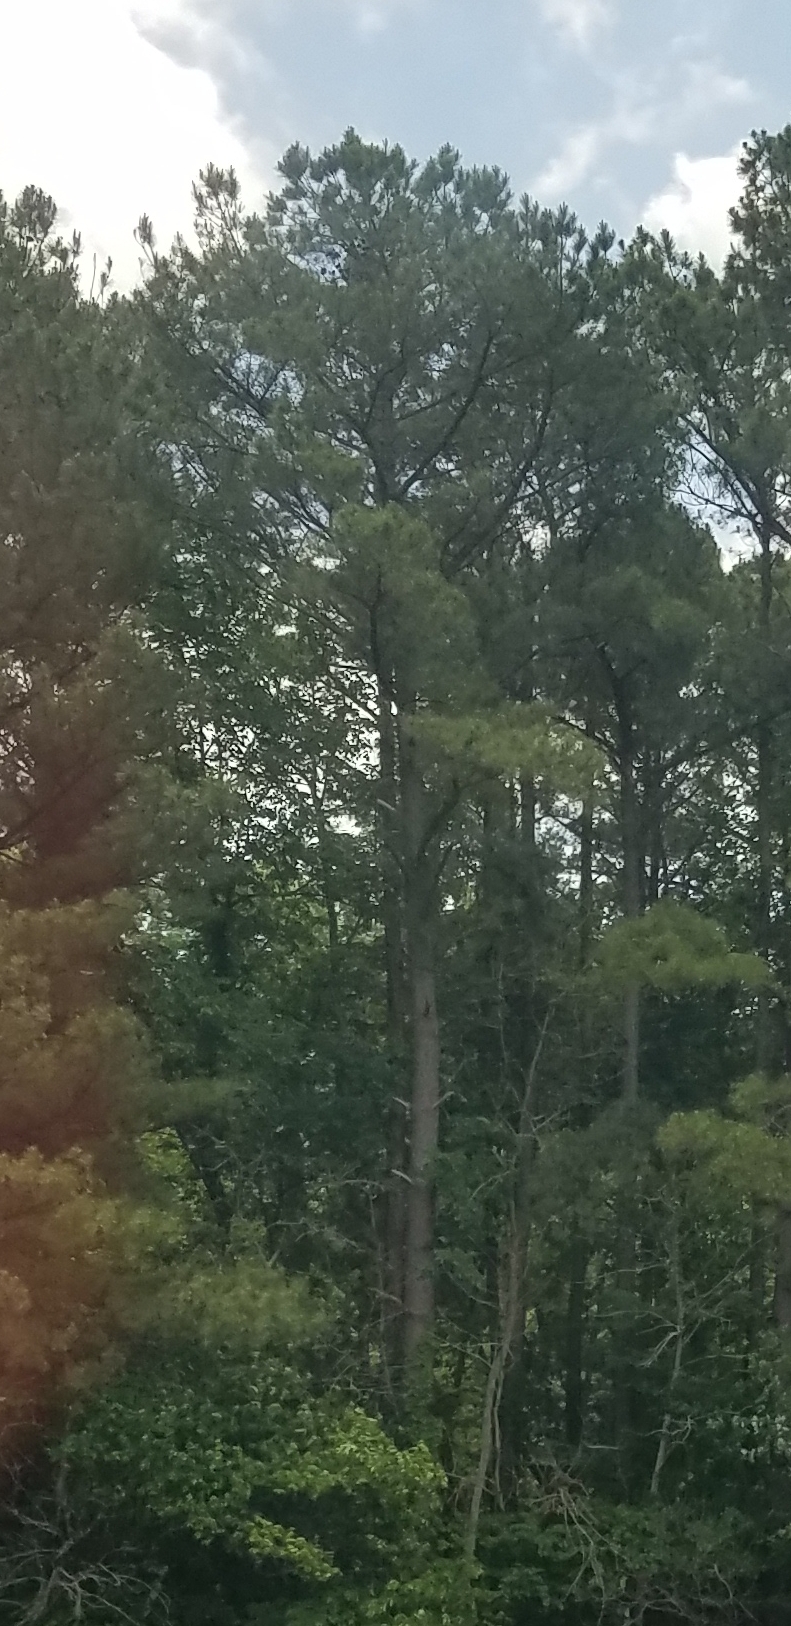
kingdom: Plantae
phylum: Tracheophyta
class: Pinopsida
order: Pinales
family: Pinaceae
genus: Pinus
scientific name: Pinus strobus
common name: Weymouth pine
